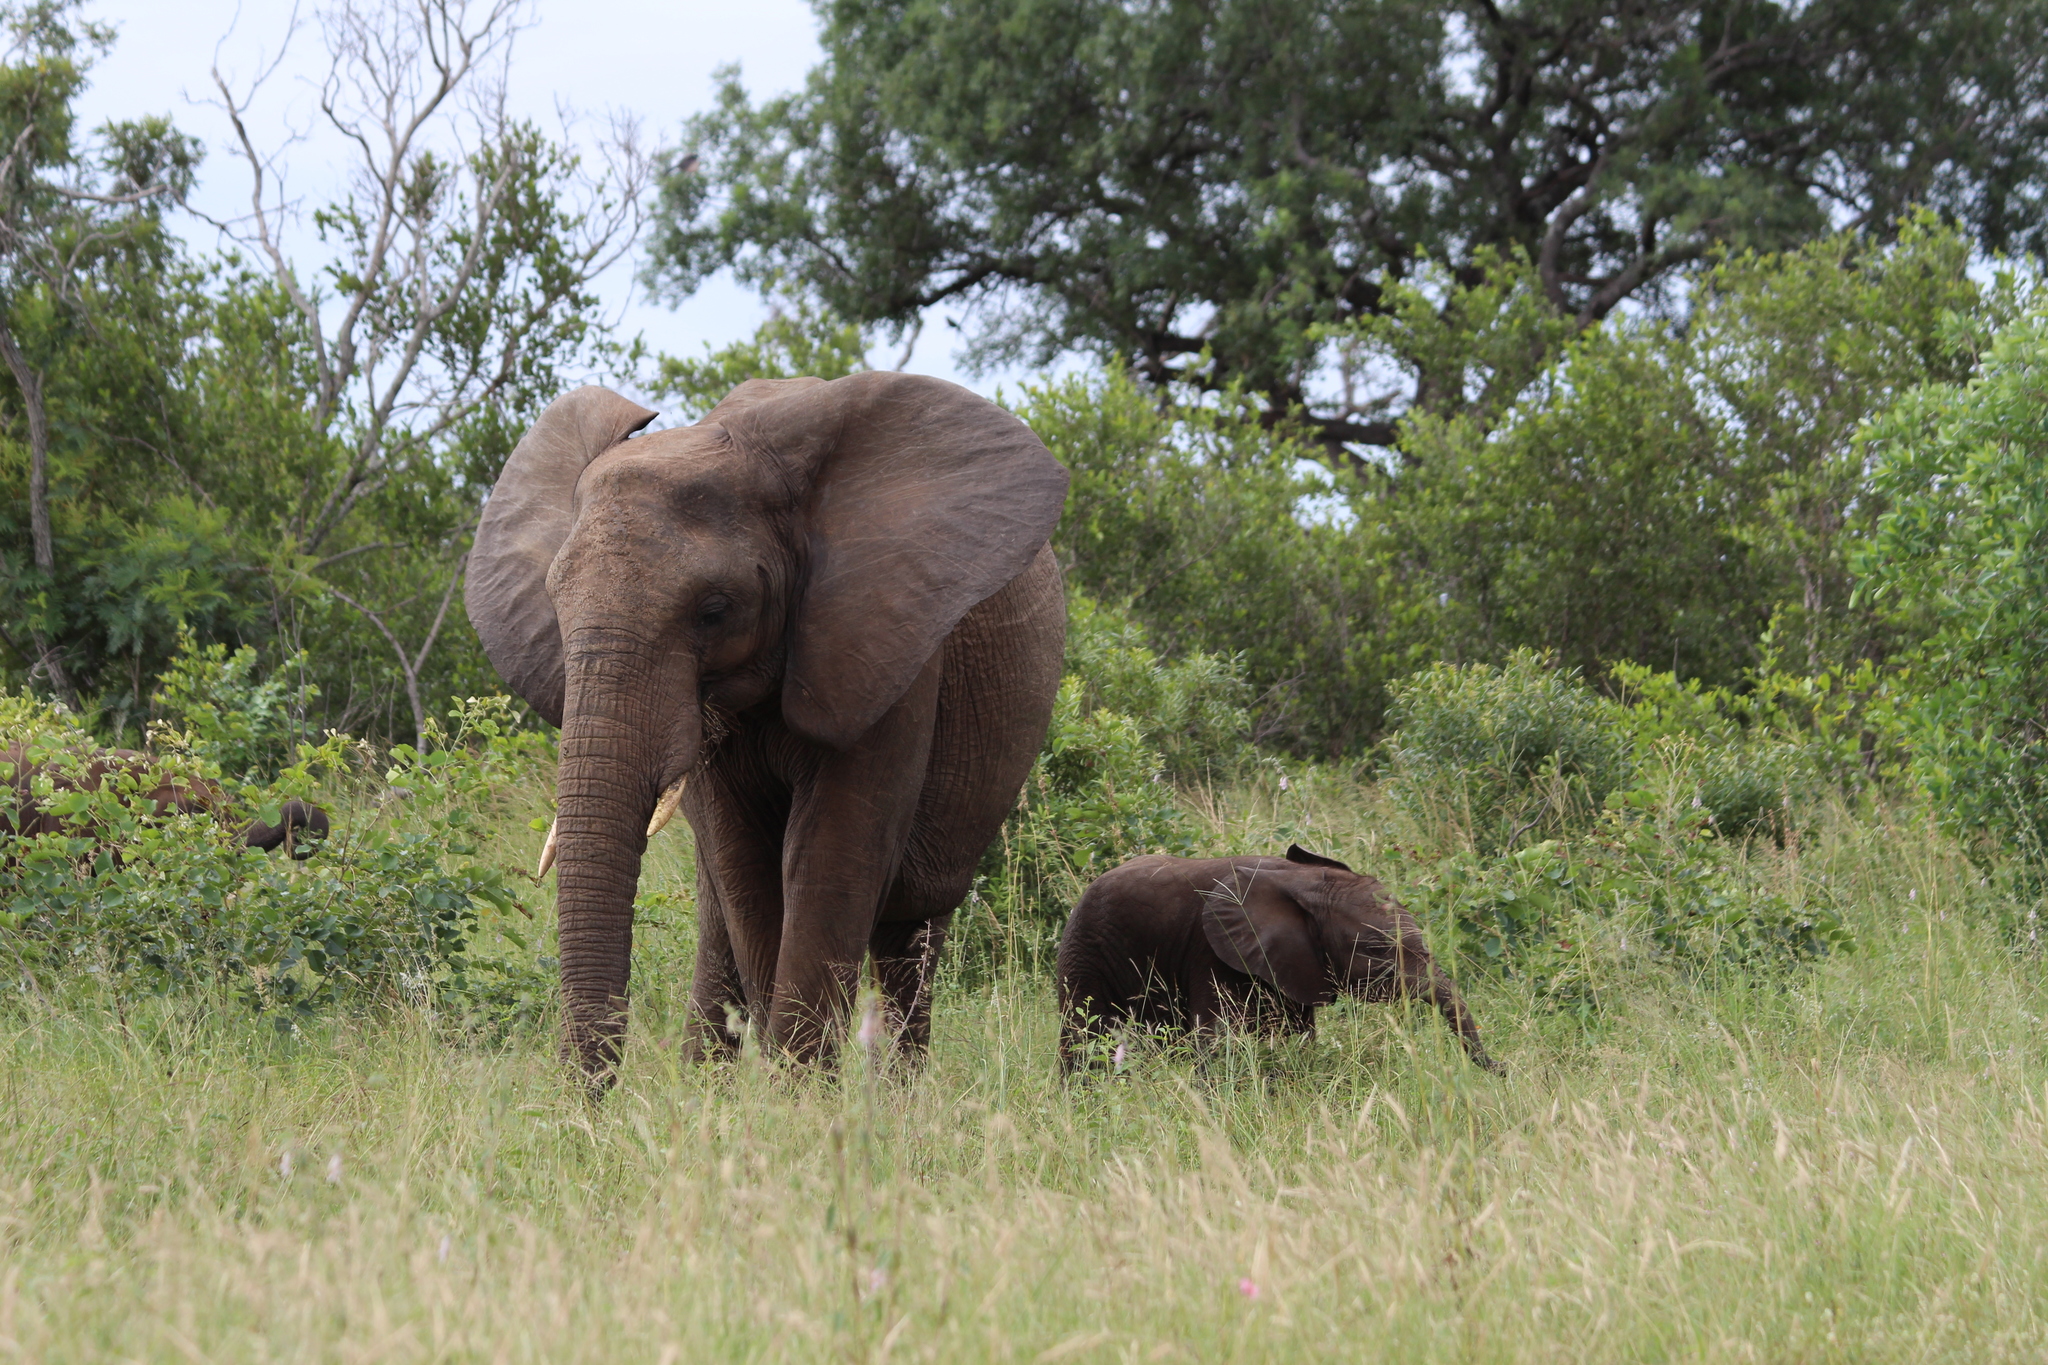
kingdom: Animalia
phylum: Chordata
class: Mammalia
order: Proboscidea
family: Elephantidae
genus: Loxodonta
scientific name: Loxodonta africana
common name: African elephant
